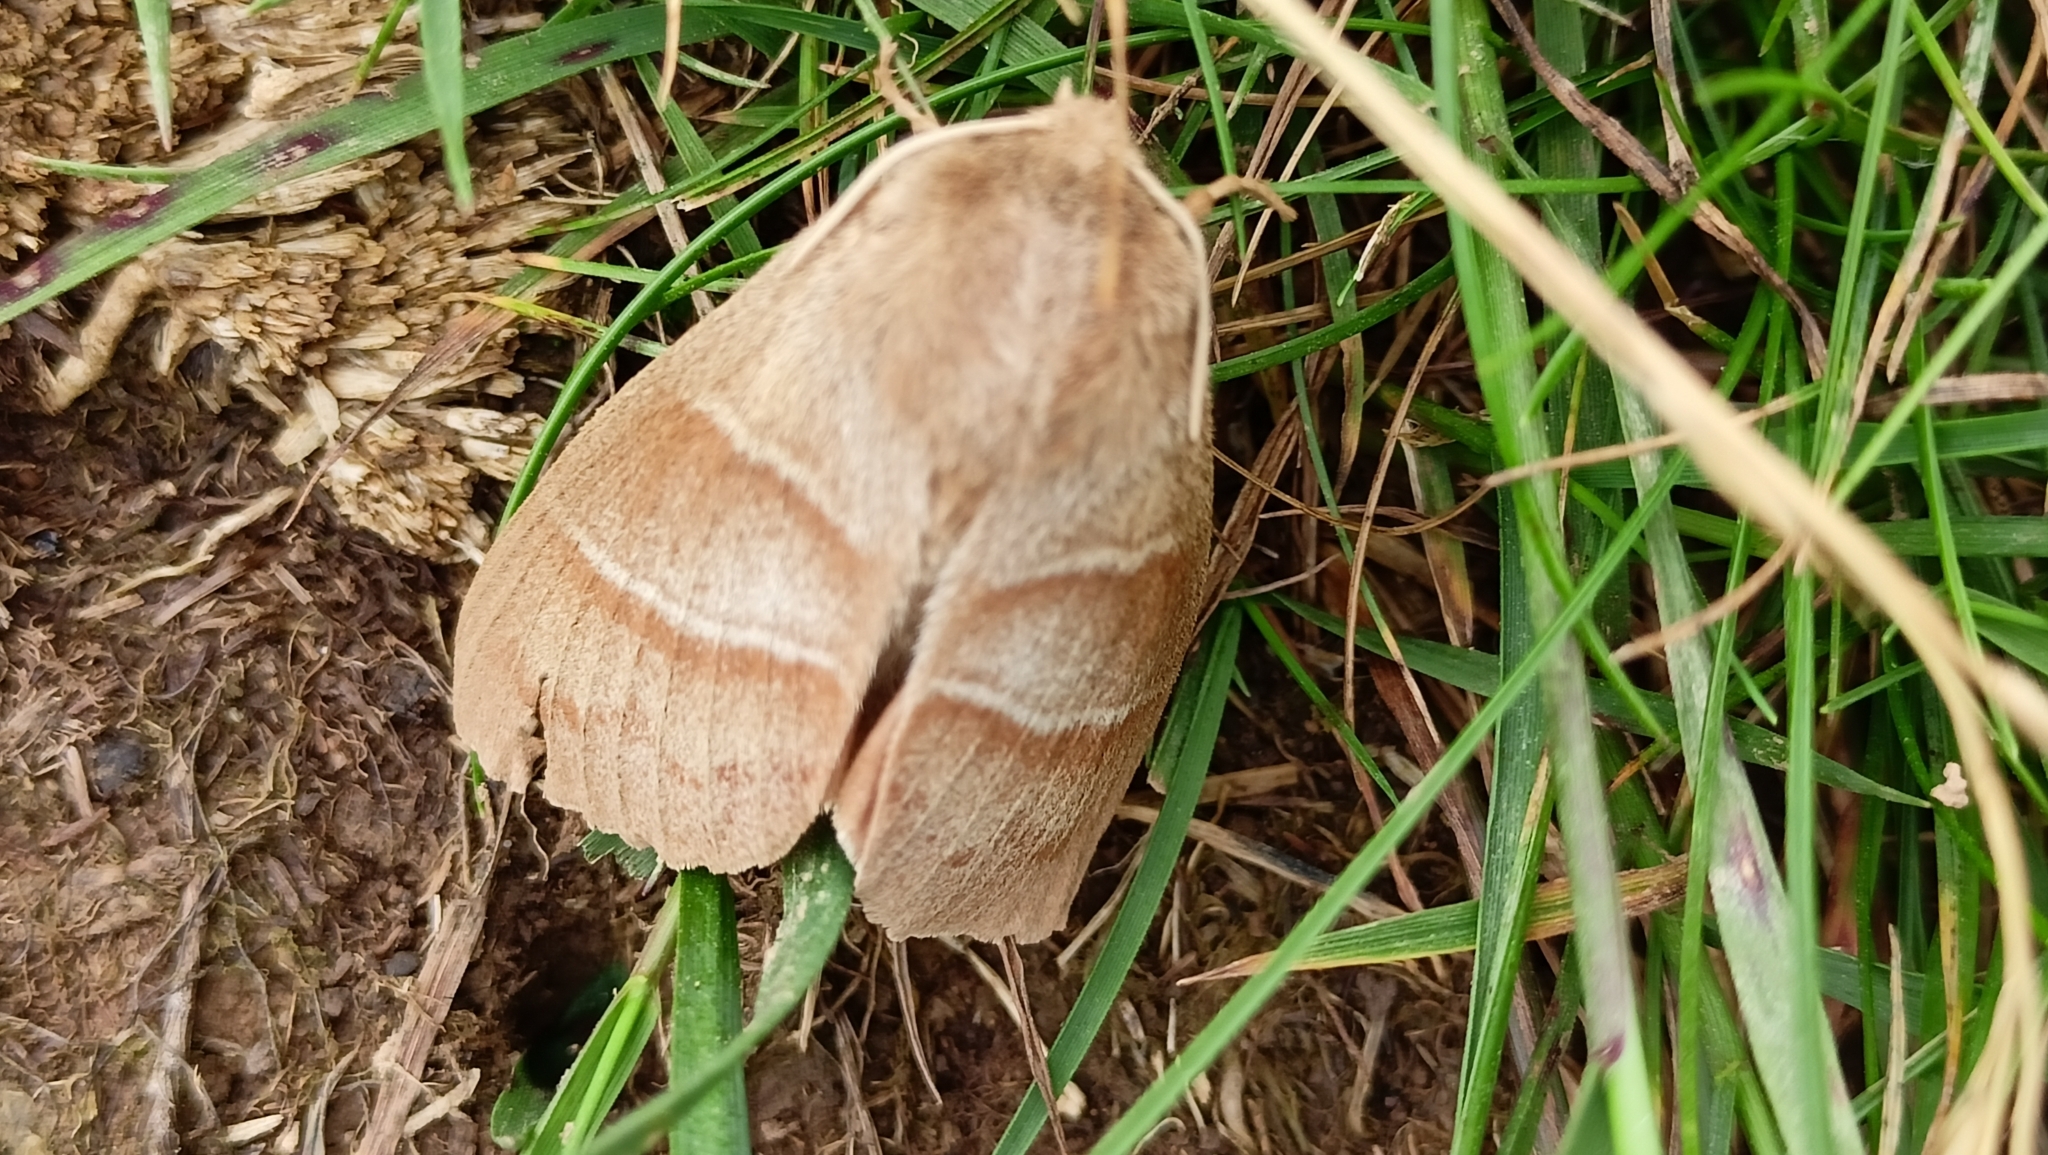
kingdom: Animalia
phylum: Arthropoda
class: Insecta
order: Lepidoptera
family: Lasiocampidae
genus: Macrothylacia
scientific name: Macrothylacia rubi
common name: Fox moth
